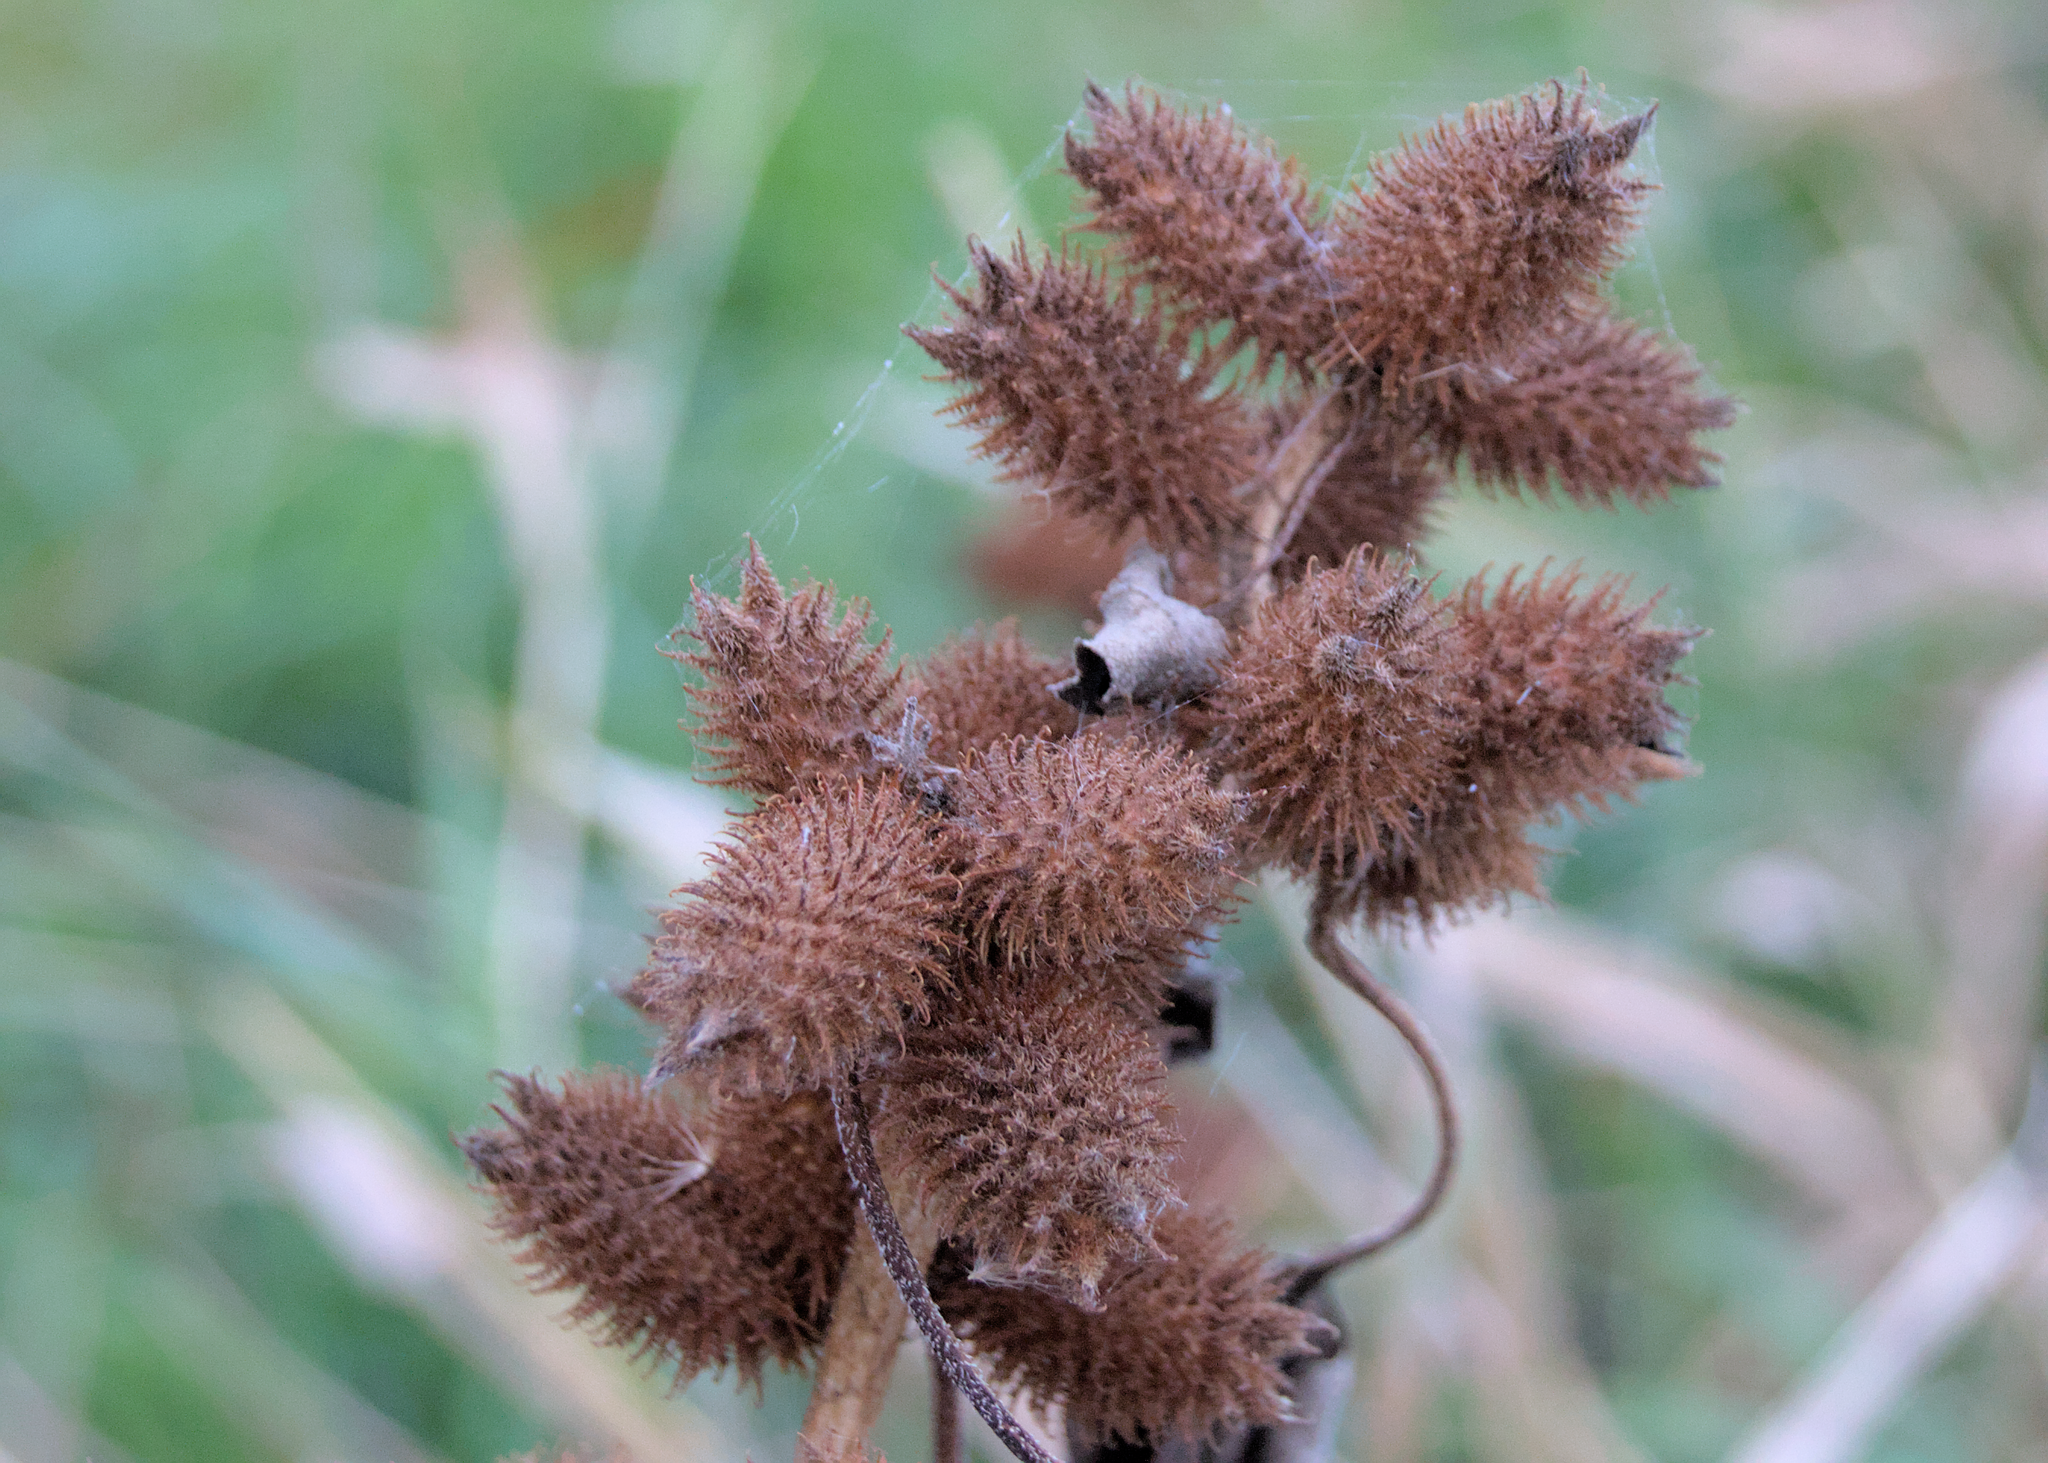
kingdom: Plantae
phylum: Tracheophyta
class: Magnoliopsida
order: Asterales
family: Asteraceae
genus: Xanthium
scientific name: Xanthium
